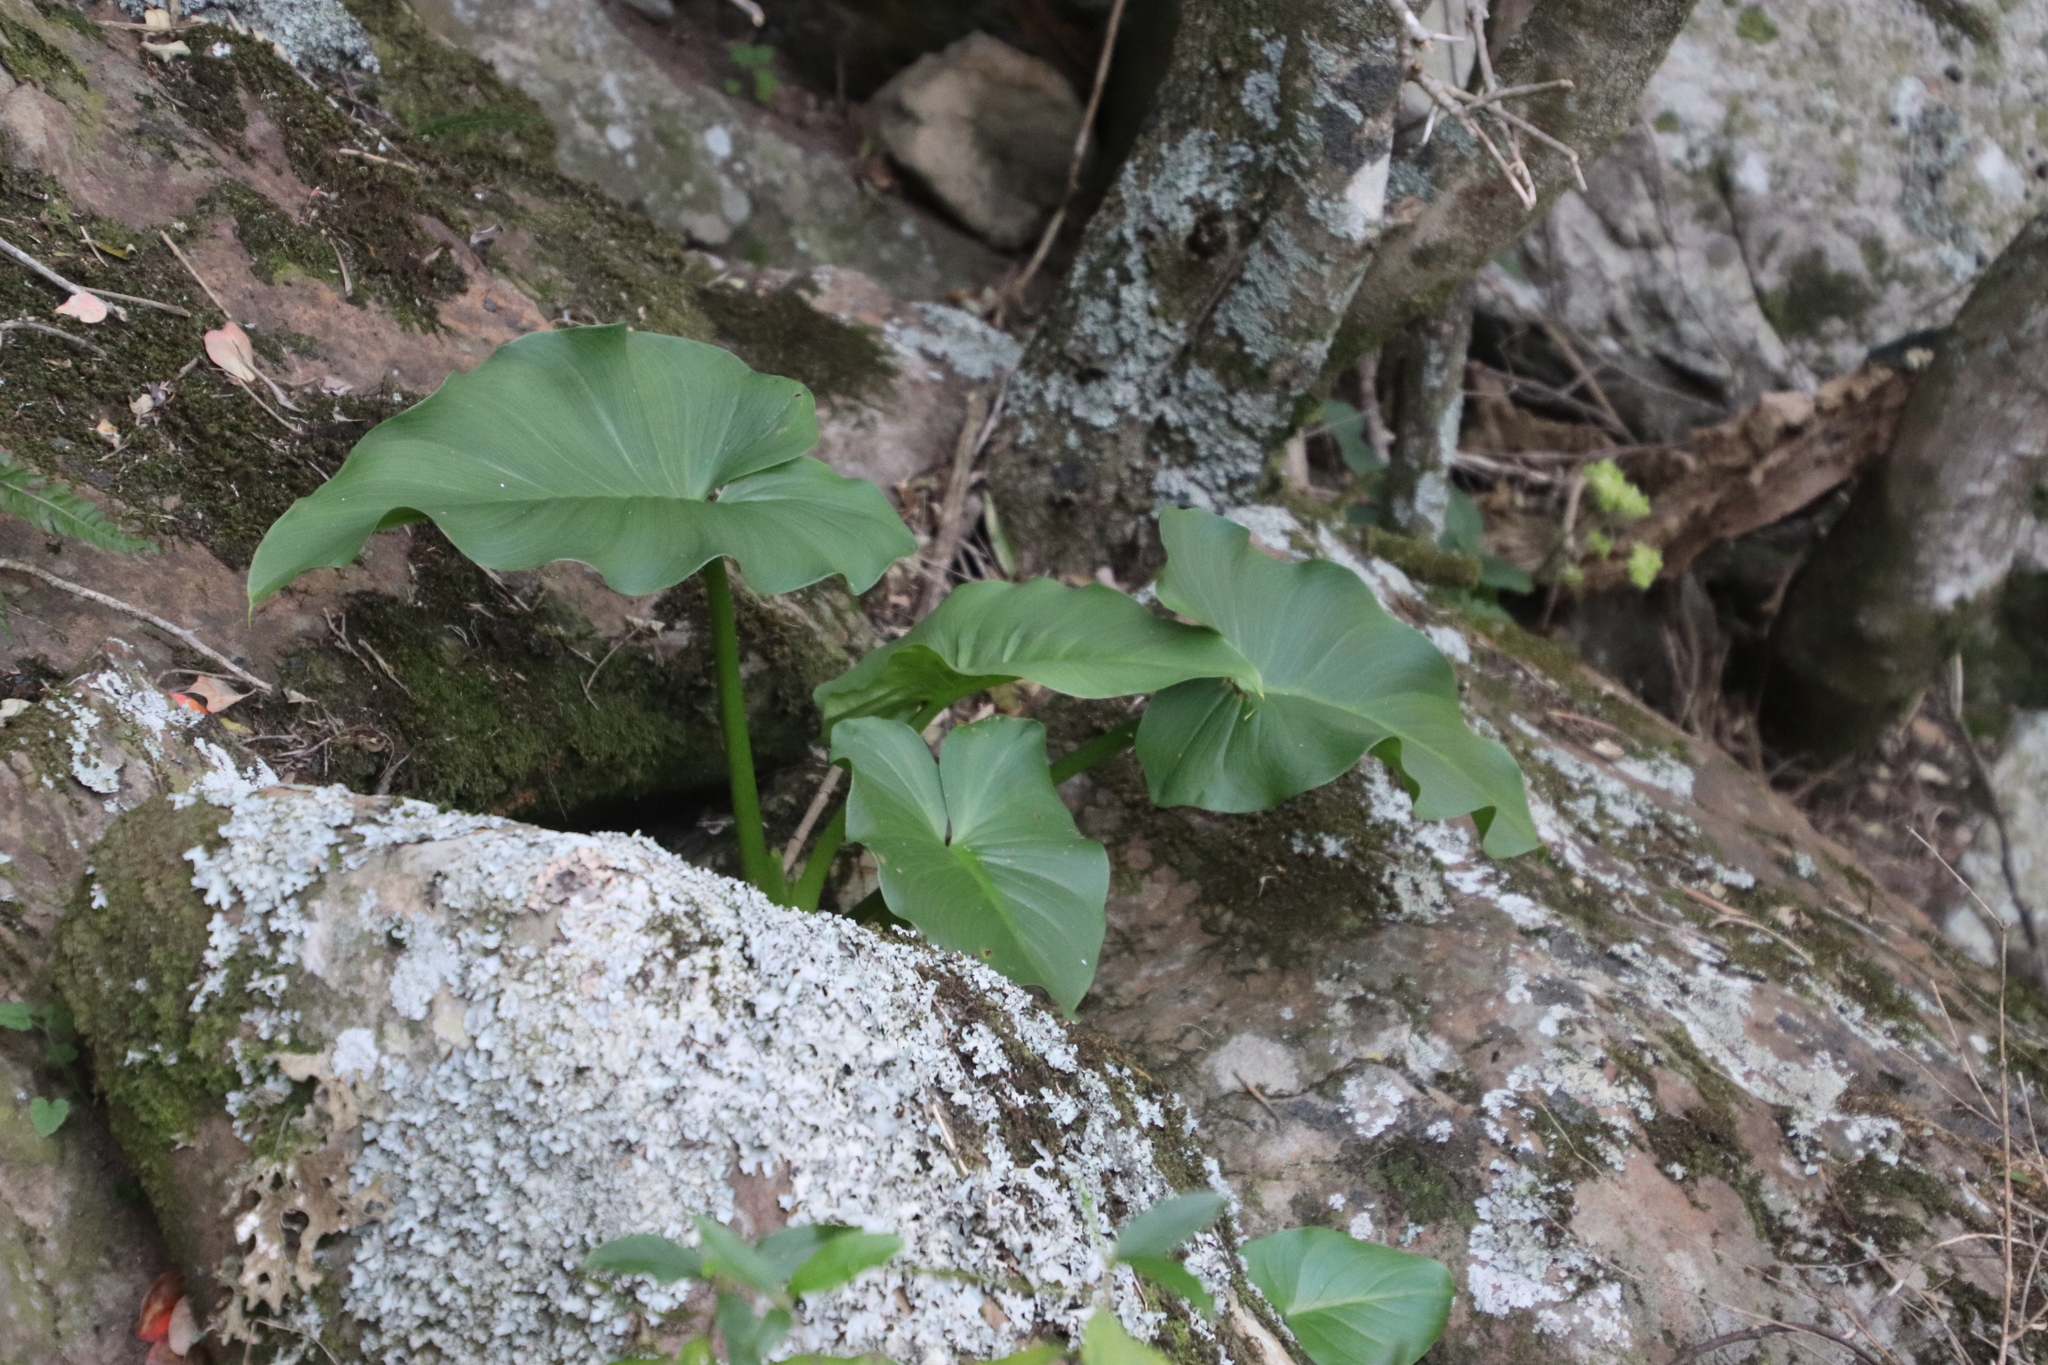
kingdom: Plantae
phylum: Tracheophyta
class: Liliopsida
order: Alismatales
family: Araceae
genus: Zantedeschia
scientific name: Zantedeschia aethiopica
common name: Altar-lily
